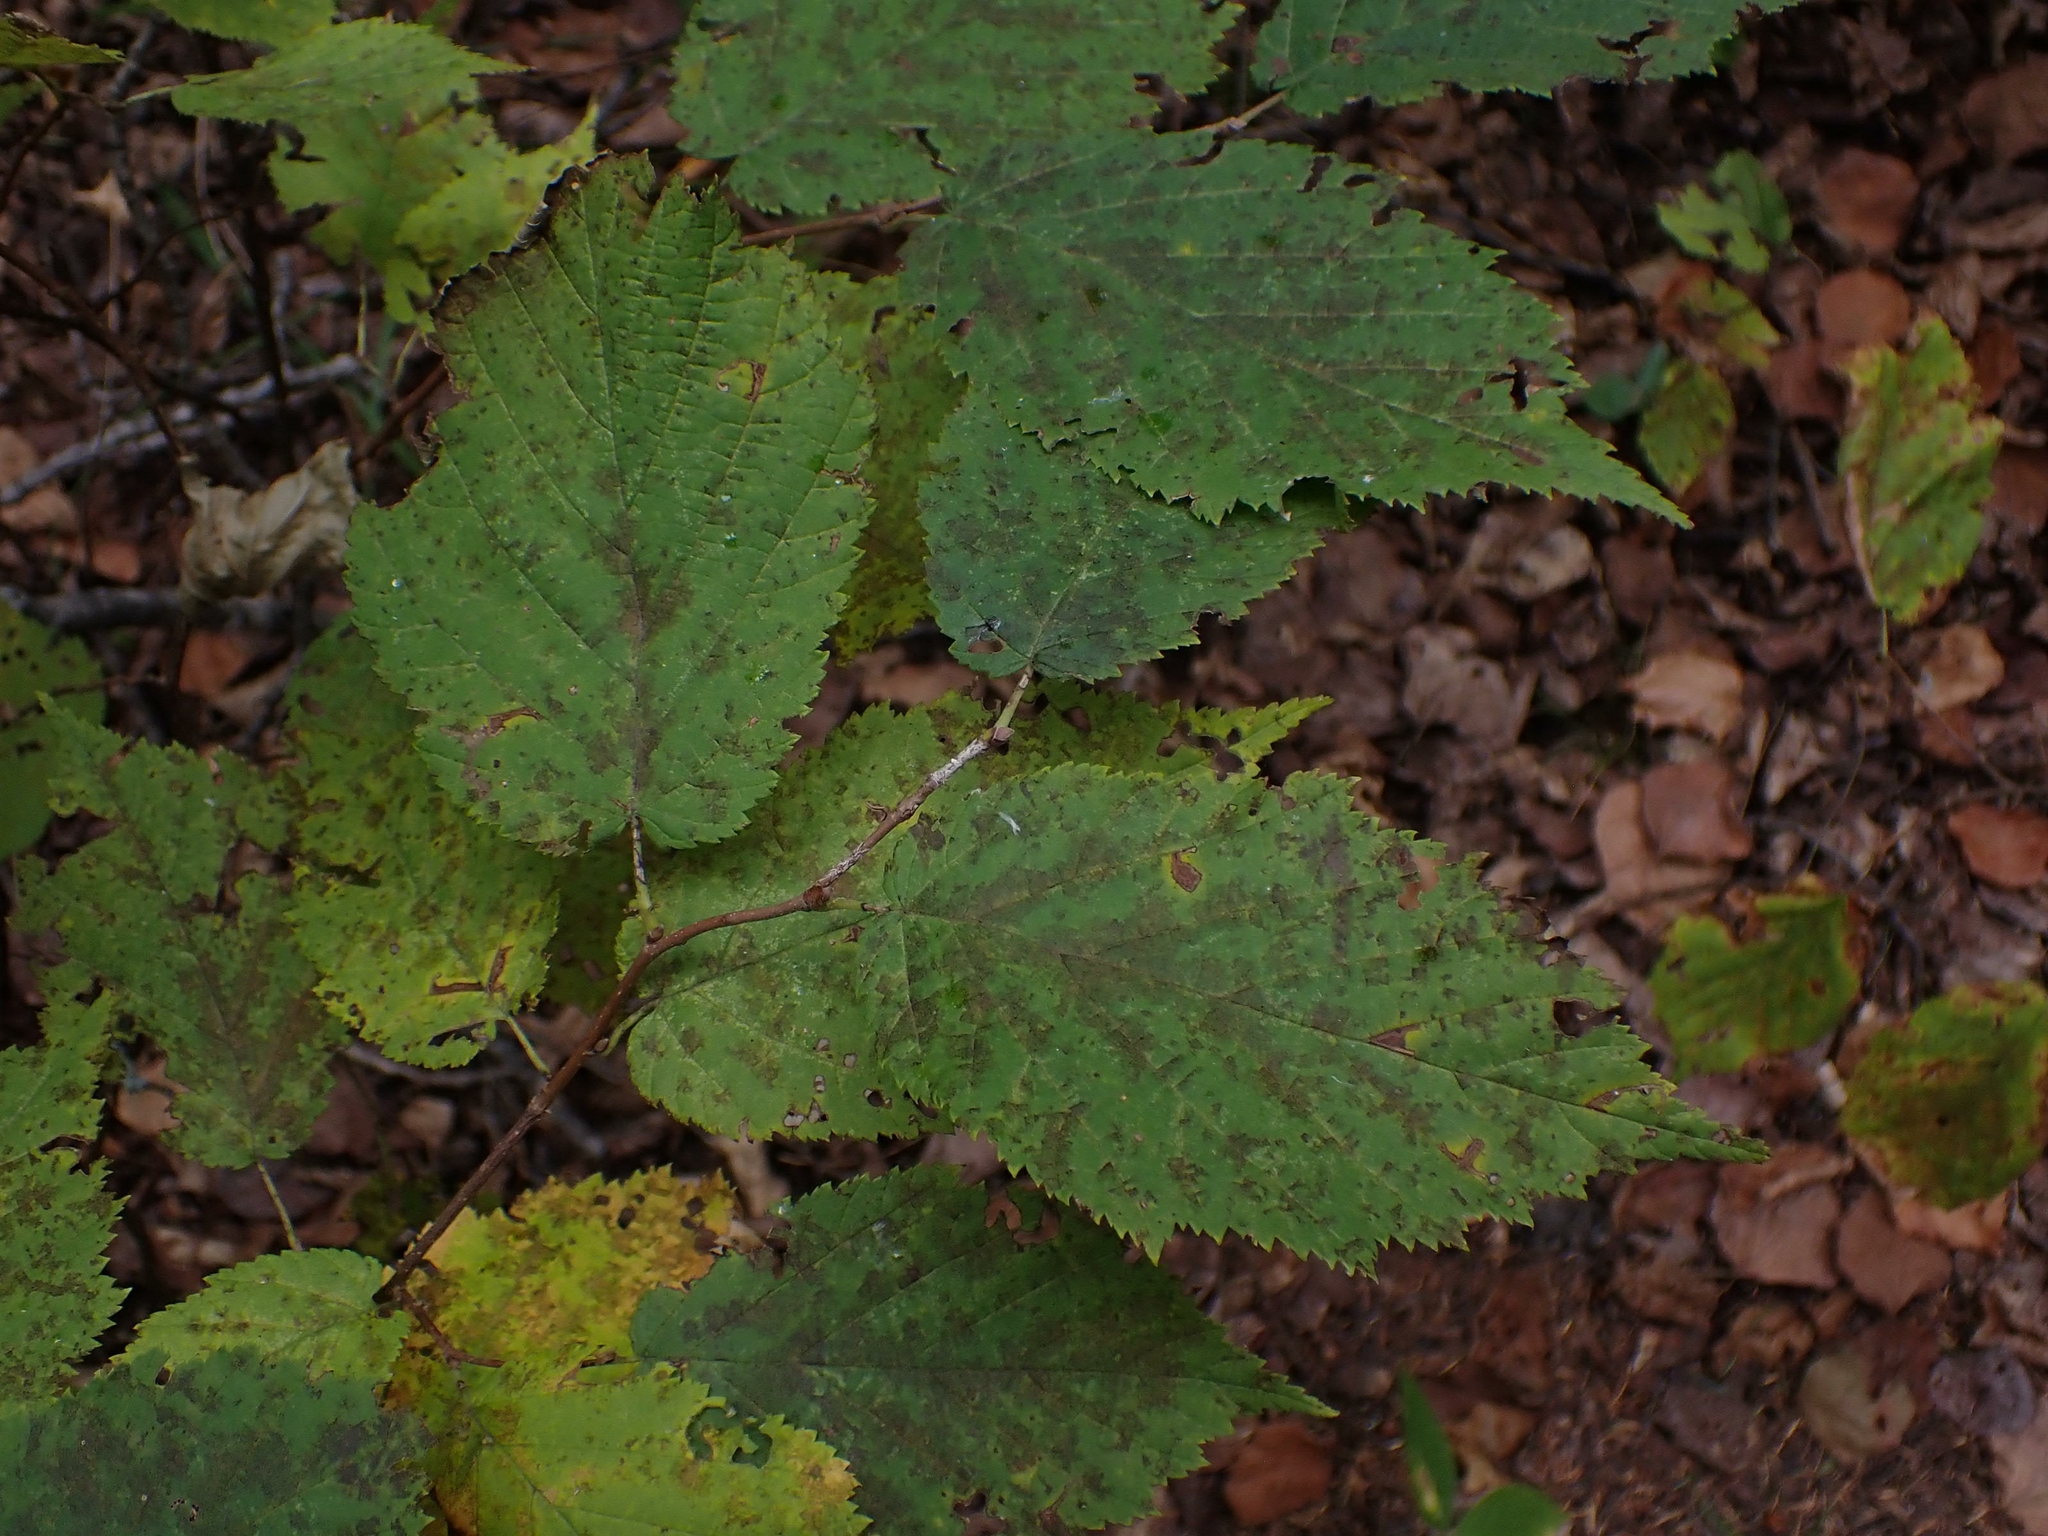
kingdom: Plantae
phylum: Tracheophyta
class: Magnoliopsida
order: Fagales
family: Betulaceae
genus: Corylus
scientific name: Corylus cornuta
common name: Beaked hazel
